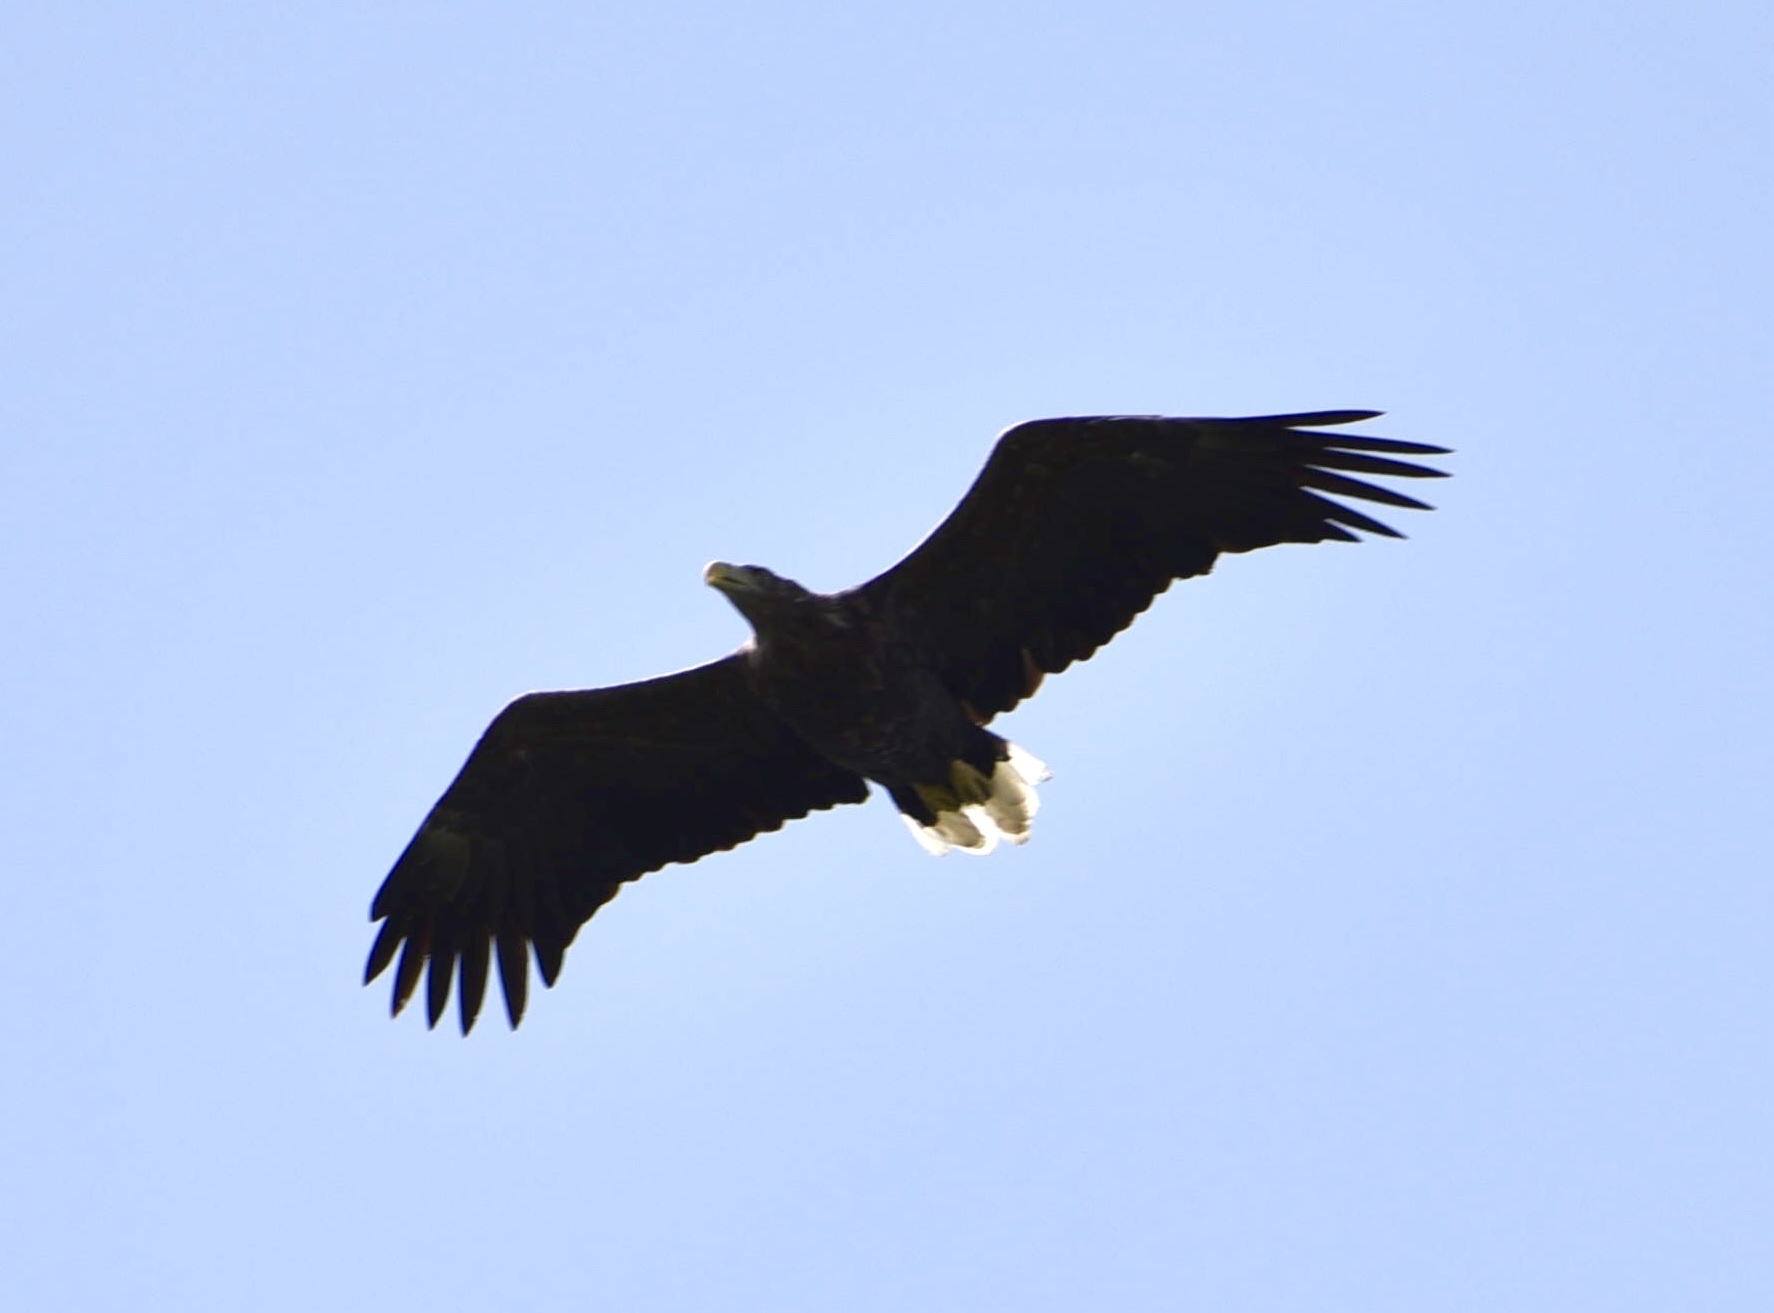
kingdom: Animalia
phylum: Chordata
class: Aves
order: Accipitriformes
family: Accipitridae
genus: Haliaeetus
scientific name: Haliaeetus albicilla
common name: White-tailed eagle
